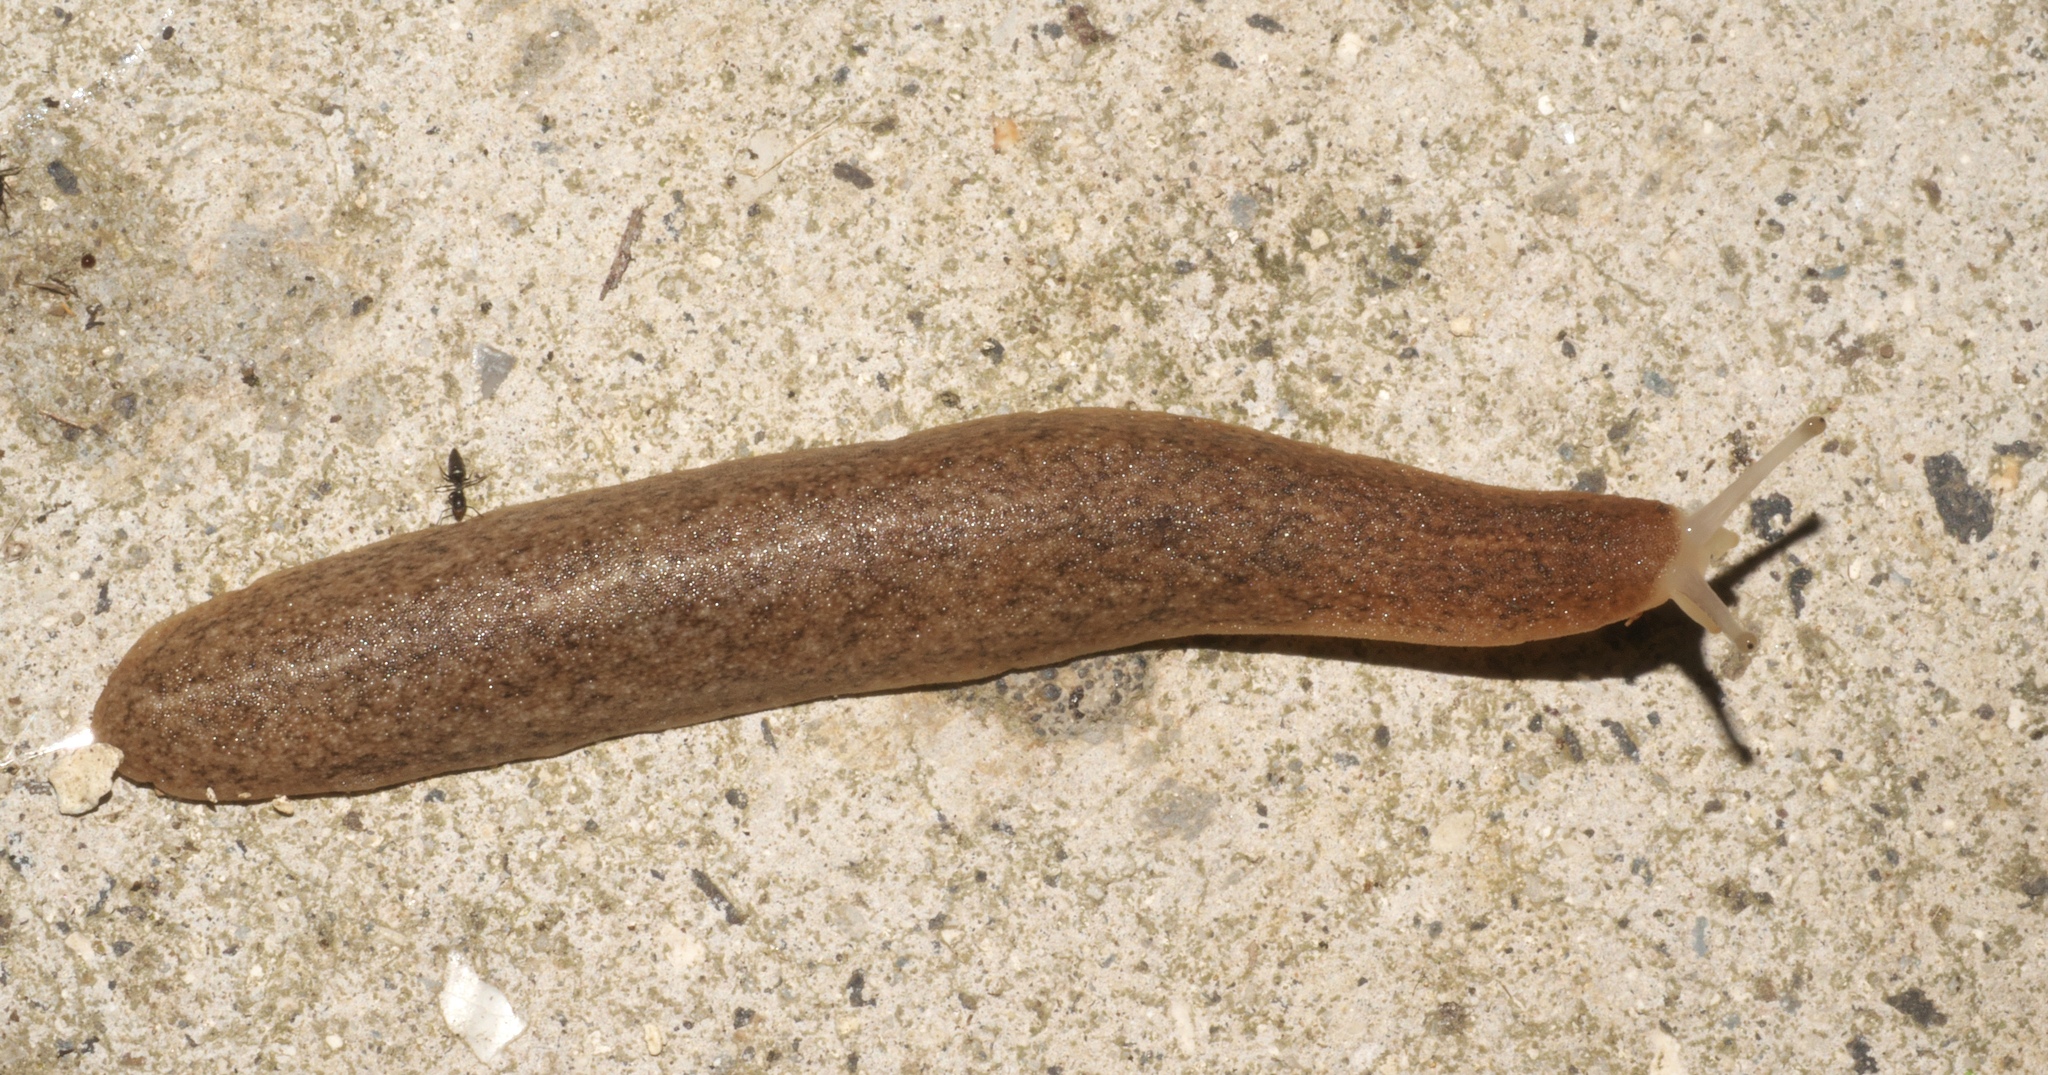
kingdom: Animalia
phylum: Mollusca
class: Gastropoda
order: Systellommatophora
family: Veronicellidae
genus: Semperula
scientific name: Semperula wallacei
